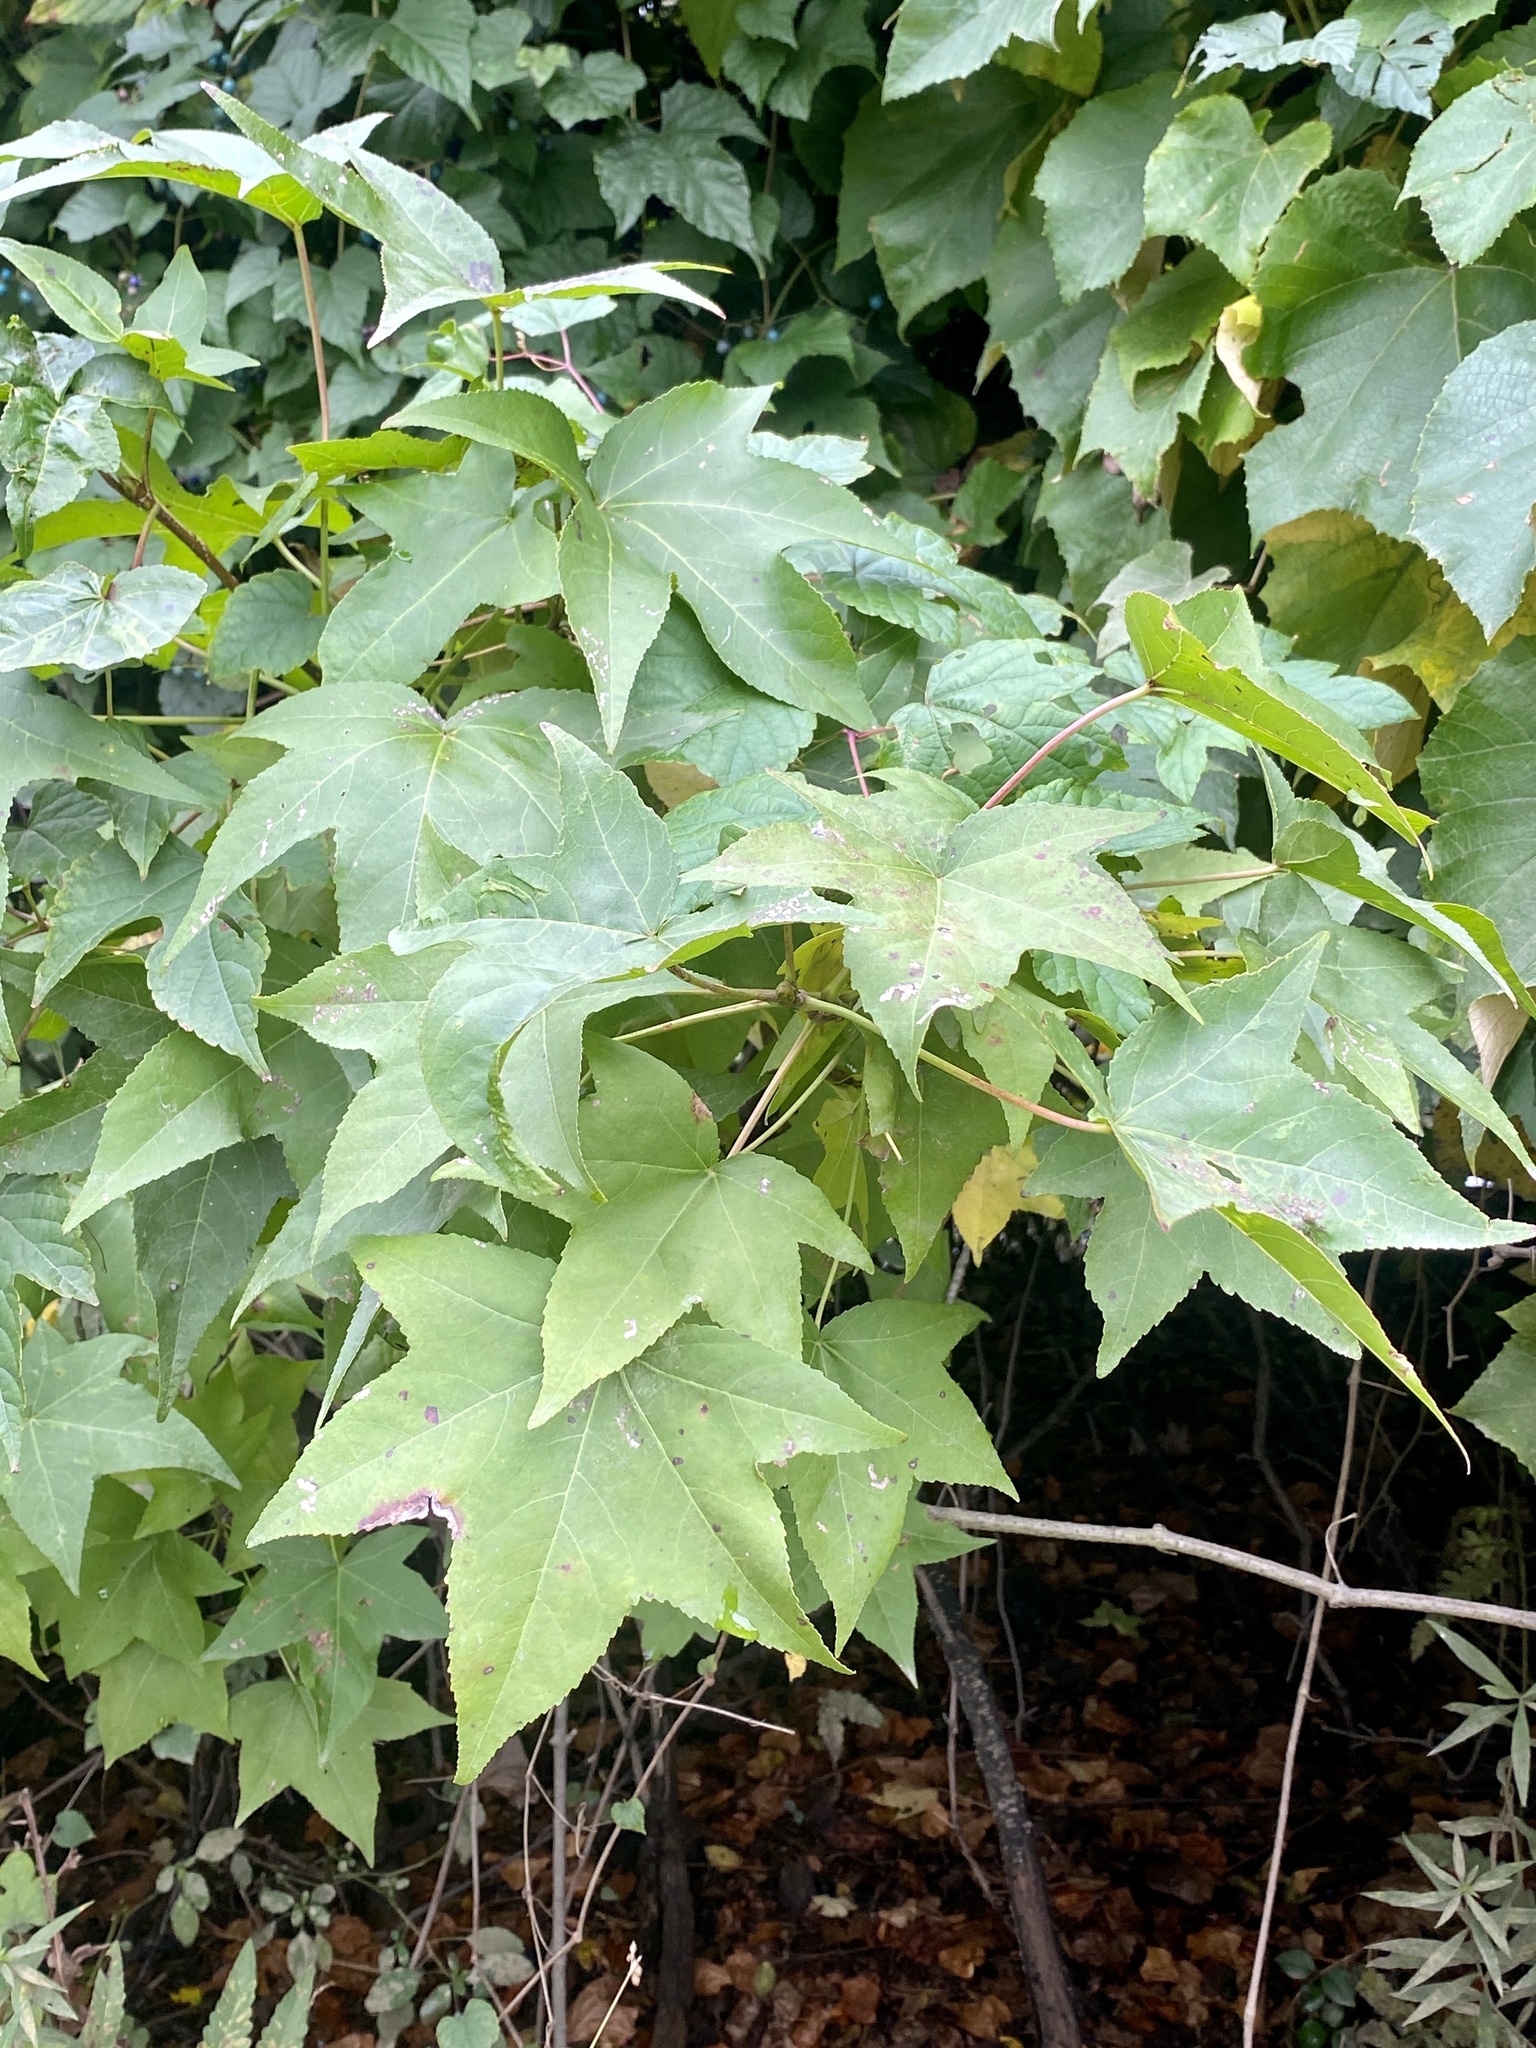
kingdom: Plantae
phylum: Tracheophyta
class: Magnoliopsida
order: Saxifragales
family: Altingiaceae
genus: Liquidambar
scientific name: Liquidambar styraciflua
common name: Sweet gum
